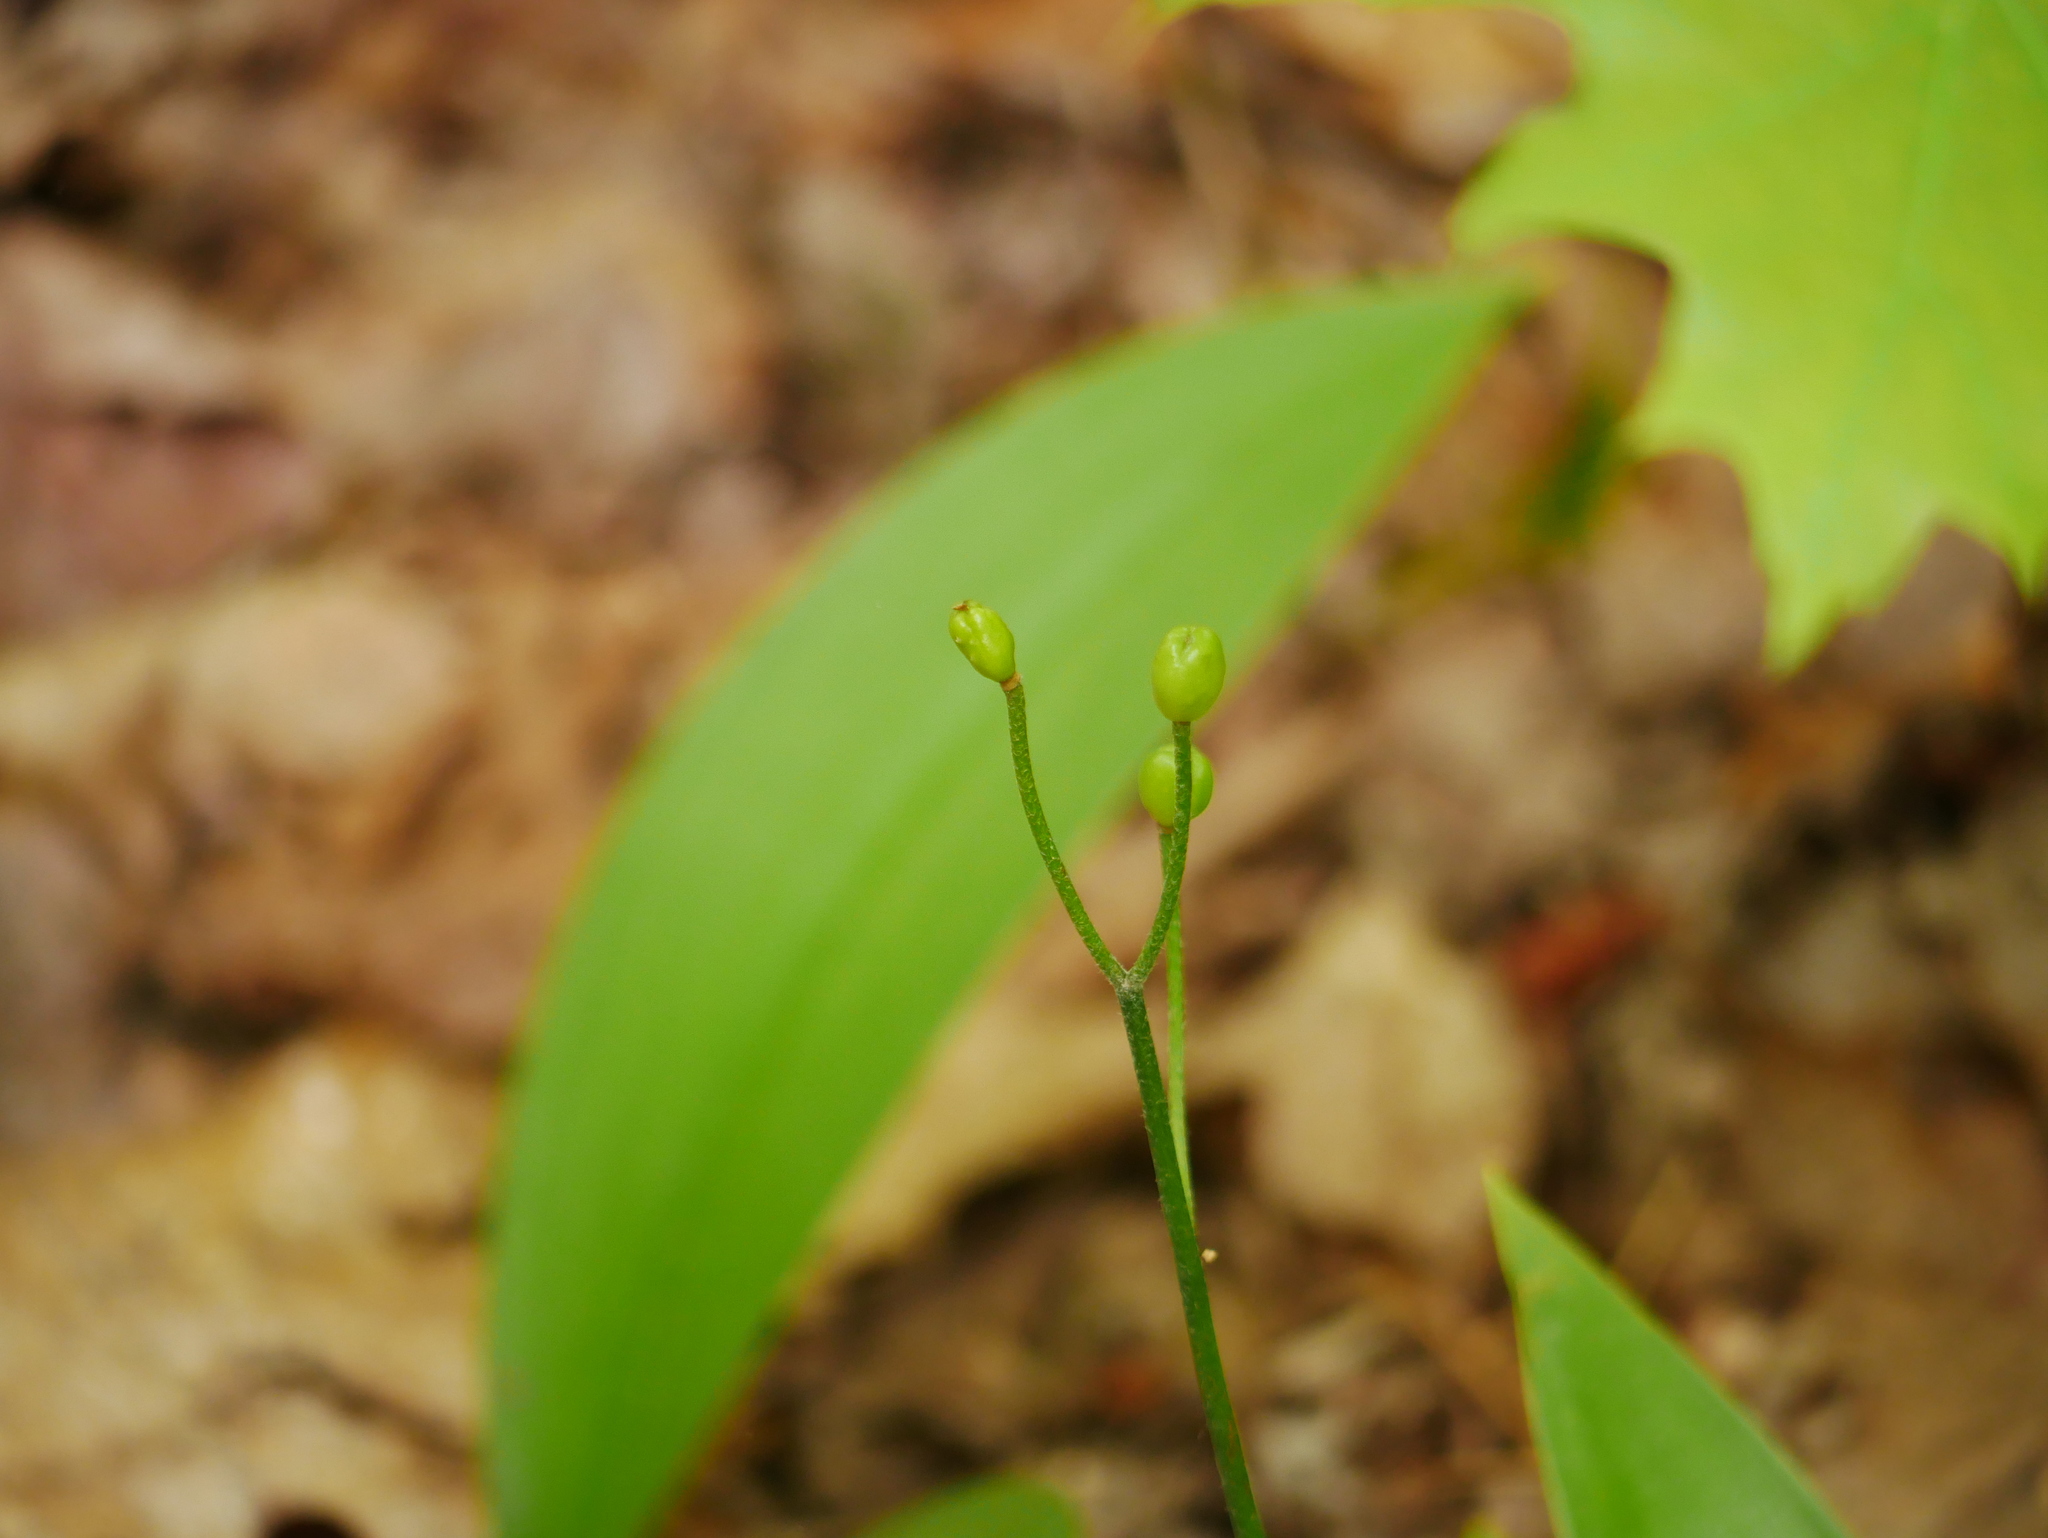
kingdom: Plantae
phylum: Tracheophyta
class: Liliopsida
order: Liliales
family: Liliaceae
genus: Clintonia
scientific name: Clintonia borealis
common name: Yellow clintonia
